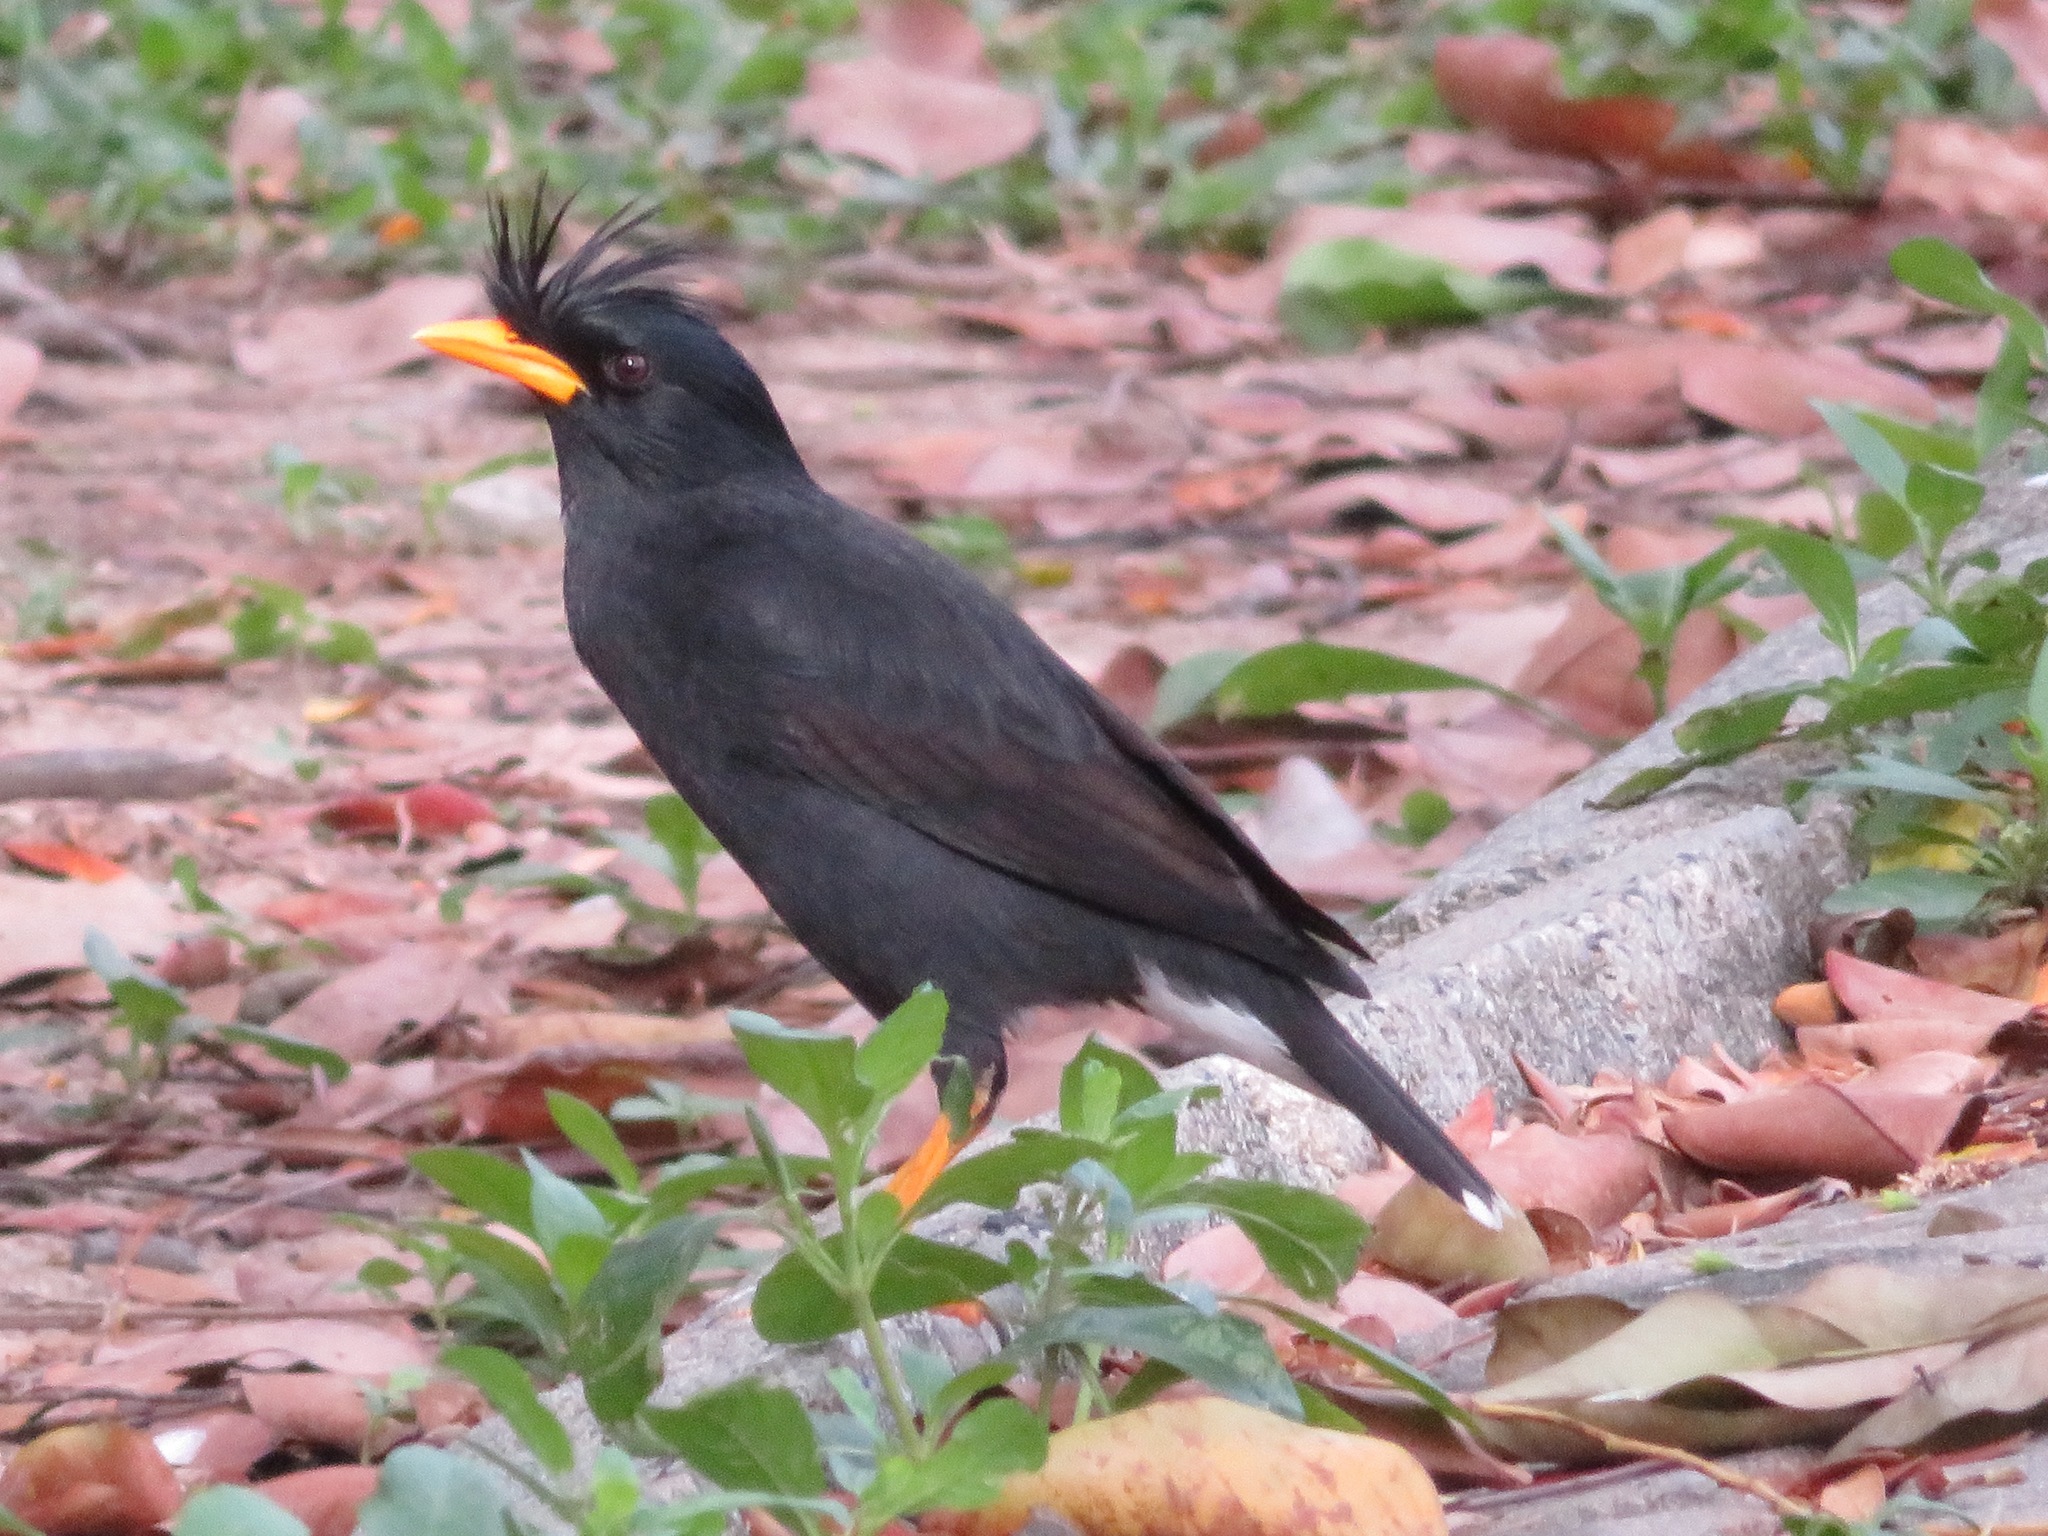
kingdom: Animalia
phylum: Chordata
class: Aves
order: Passeriformes
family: Sturnidae
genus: Acridotheres
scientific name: Acridotheres grandis
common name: Great myna
